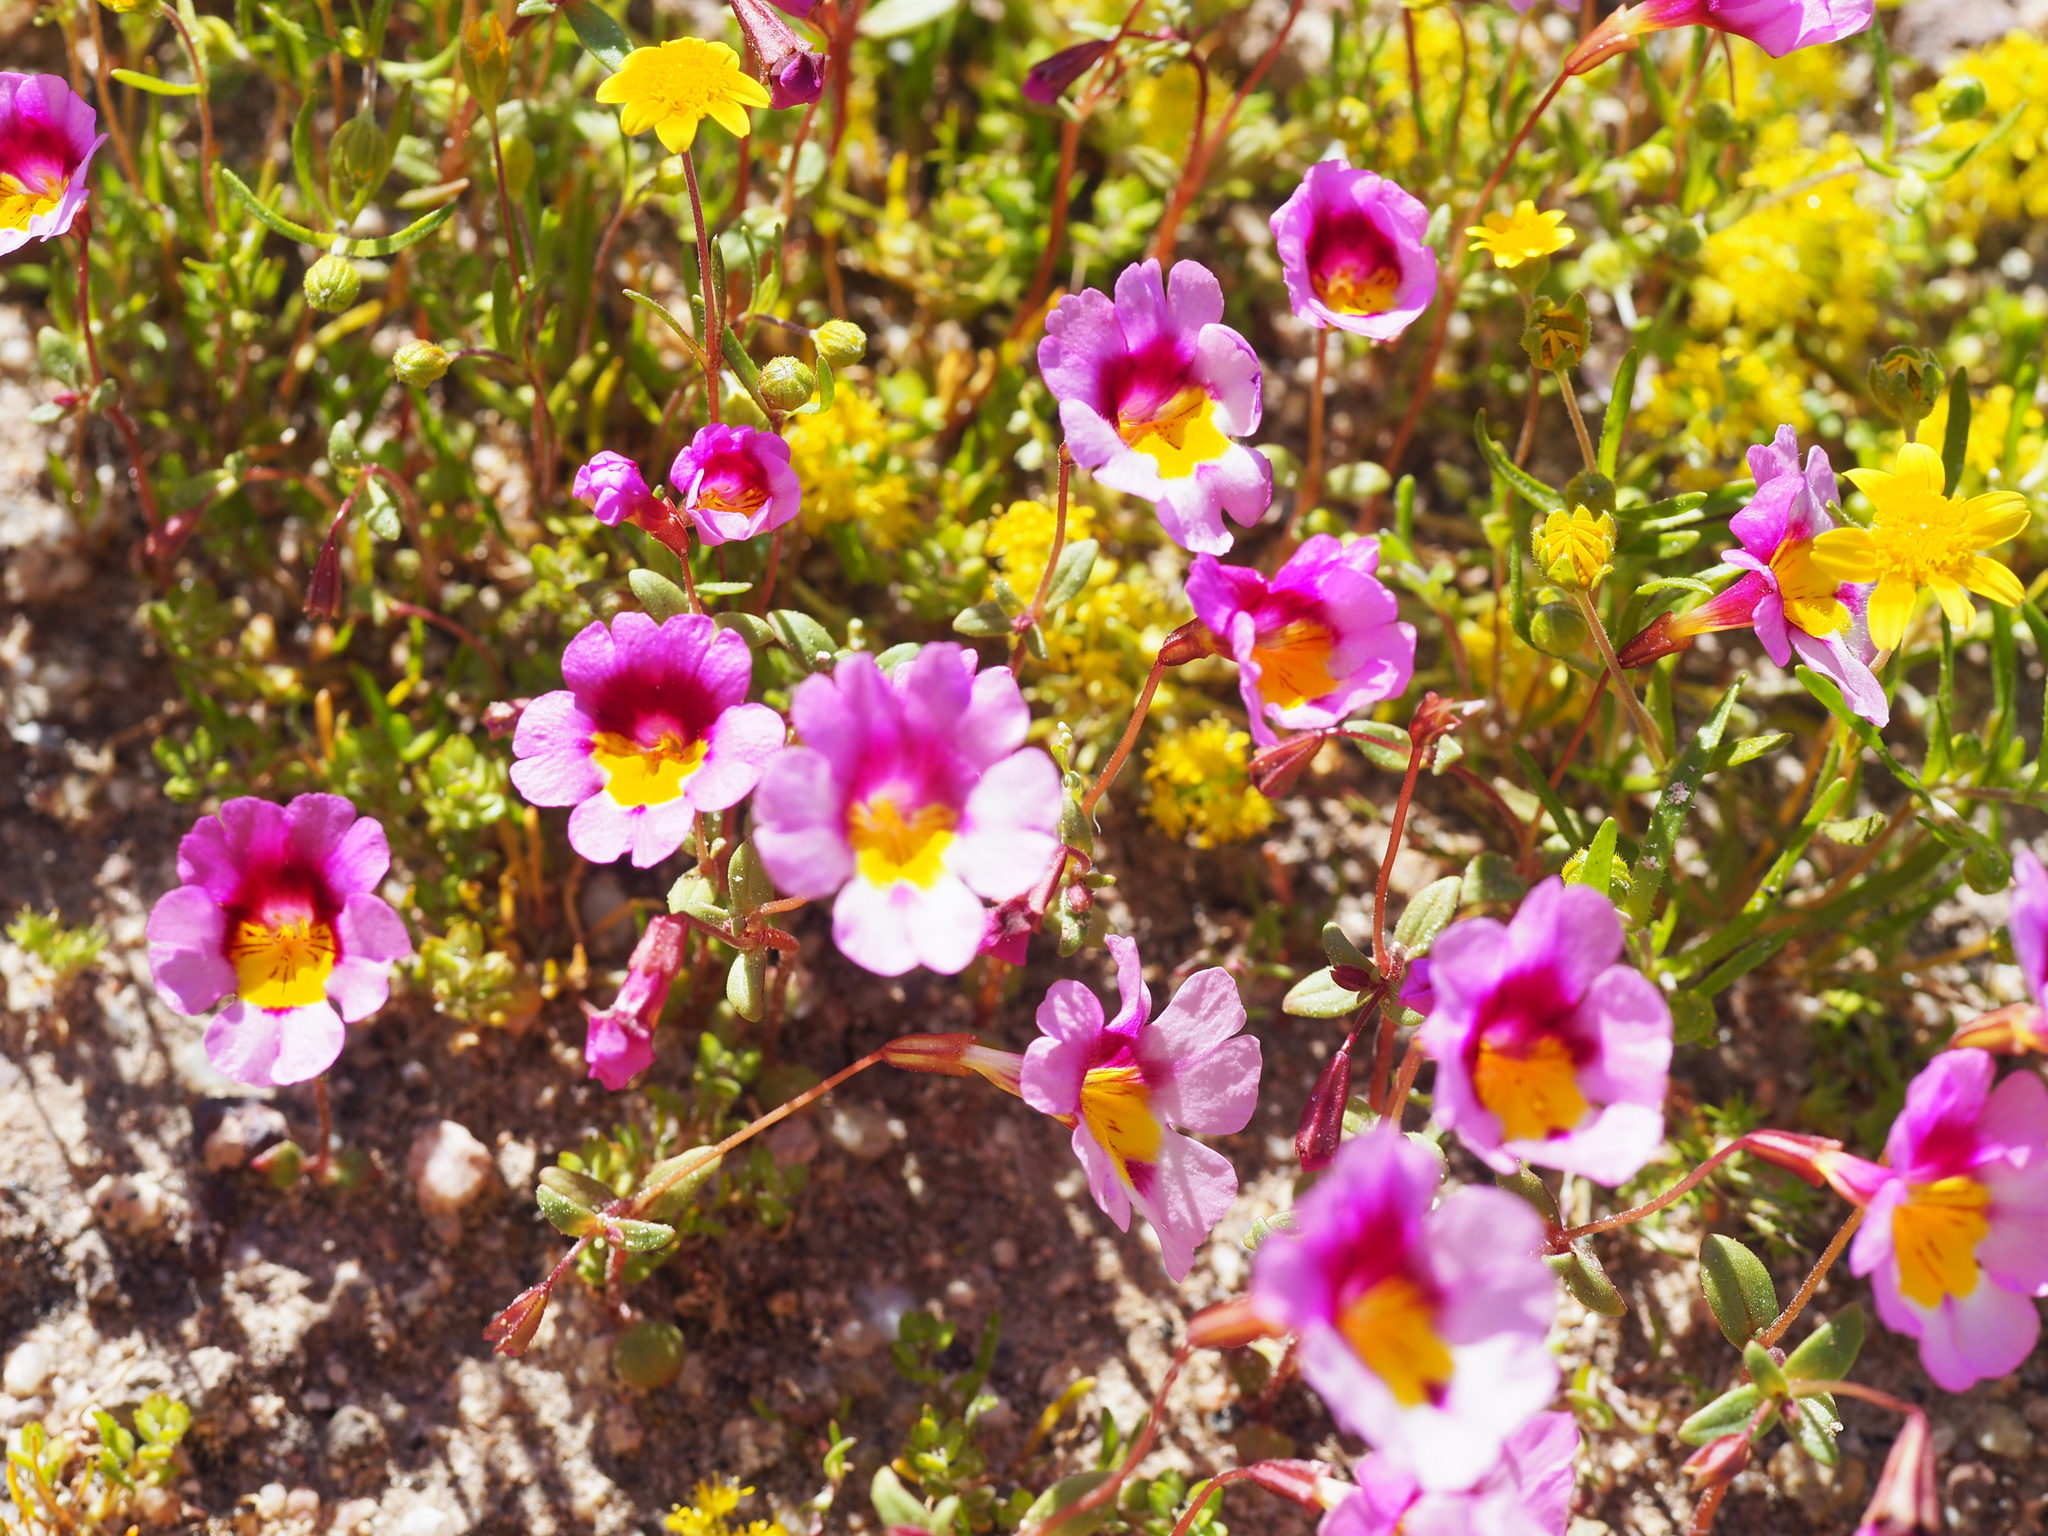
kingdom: Plantae
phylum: Tracheophyta
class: Magnoliopsida
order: Lamiales
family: Phrymaceae
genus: Erythranthe
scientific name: Erythranthe rhodopetra
